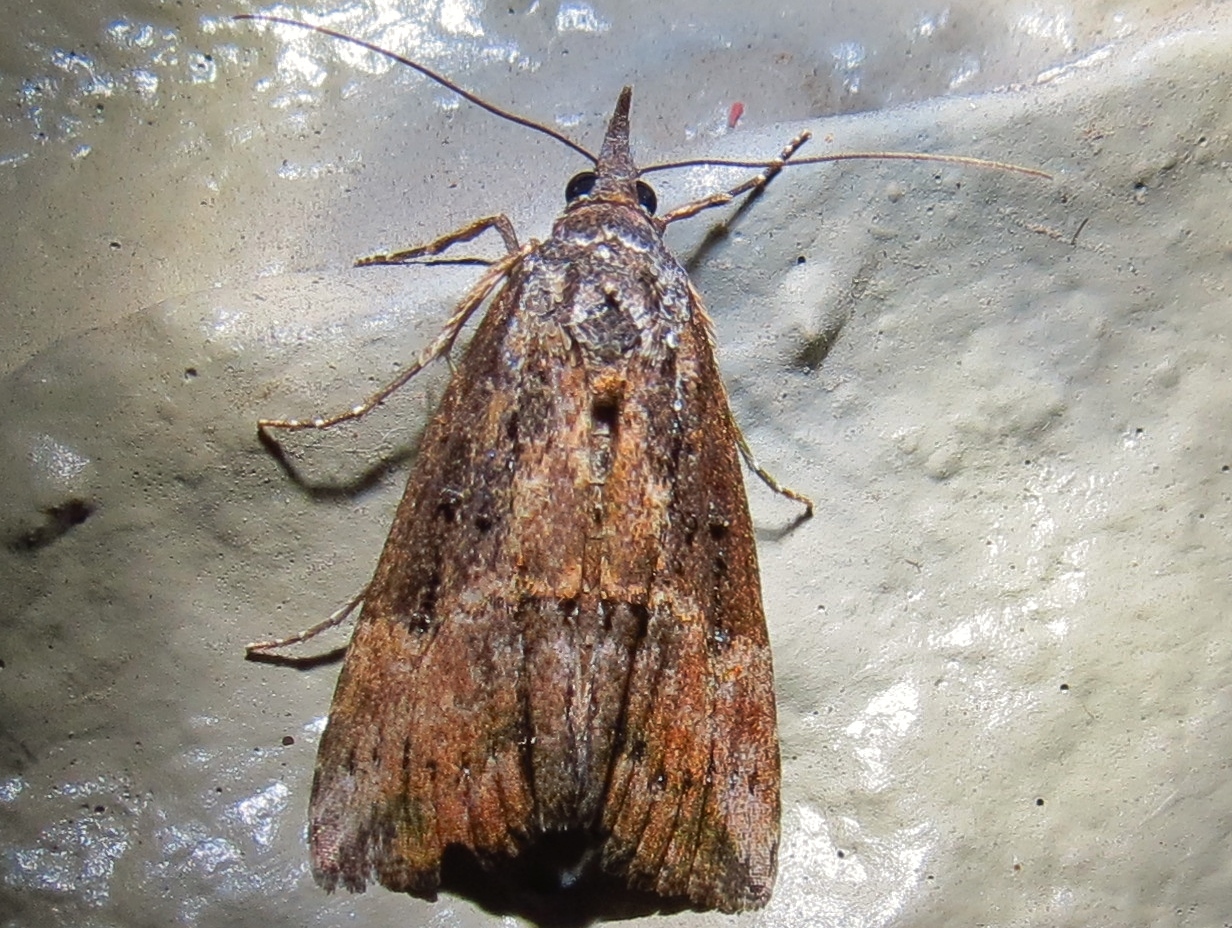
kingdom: Animalia
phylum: Arthropoda
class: Insecta
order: Lepidoptera
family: Erebidae
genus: Hypena
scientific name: Hypena scabra
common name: Green cloverworm
